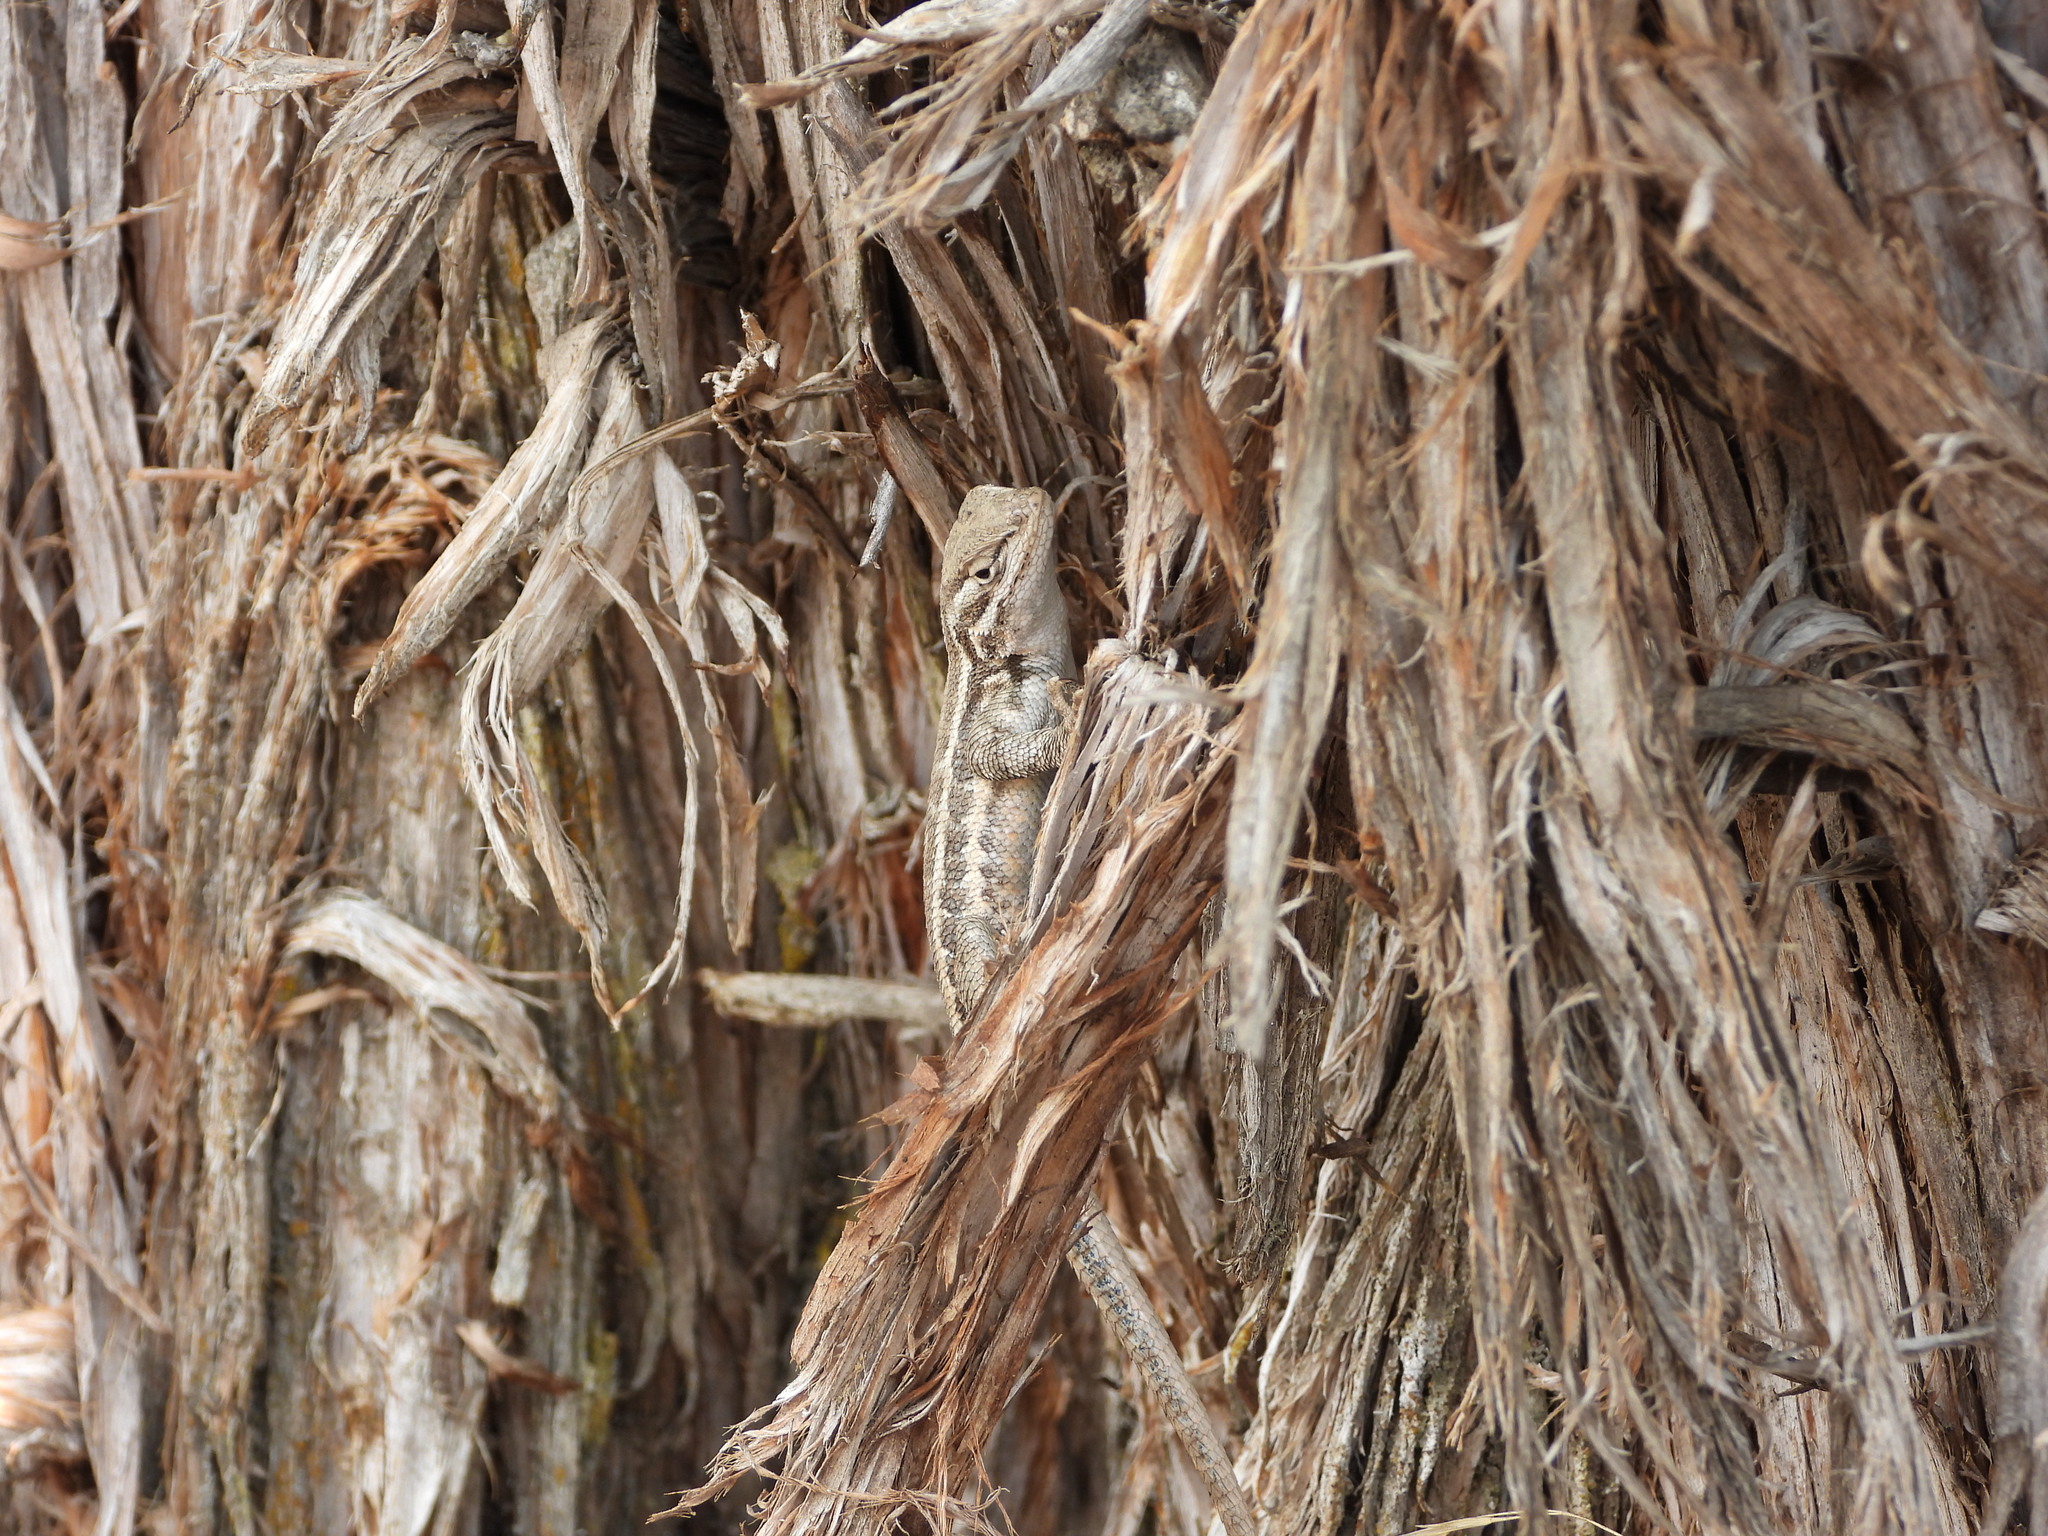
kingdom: Animalia
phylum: Chordata
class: Squamata
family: Phrynosomatidae
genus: Sceloporus
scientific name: Sceloporus graciosus
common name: Sagebrush lizard
